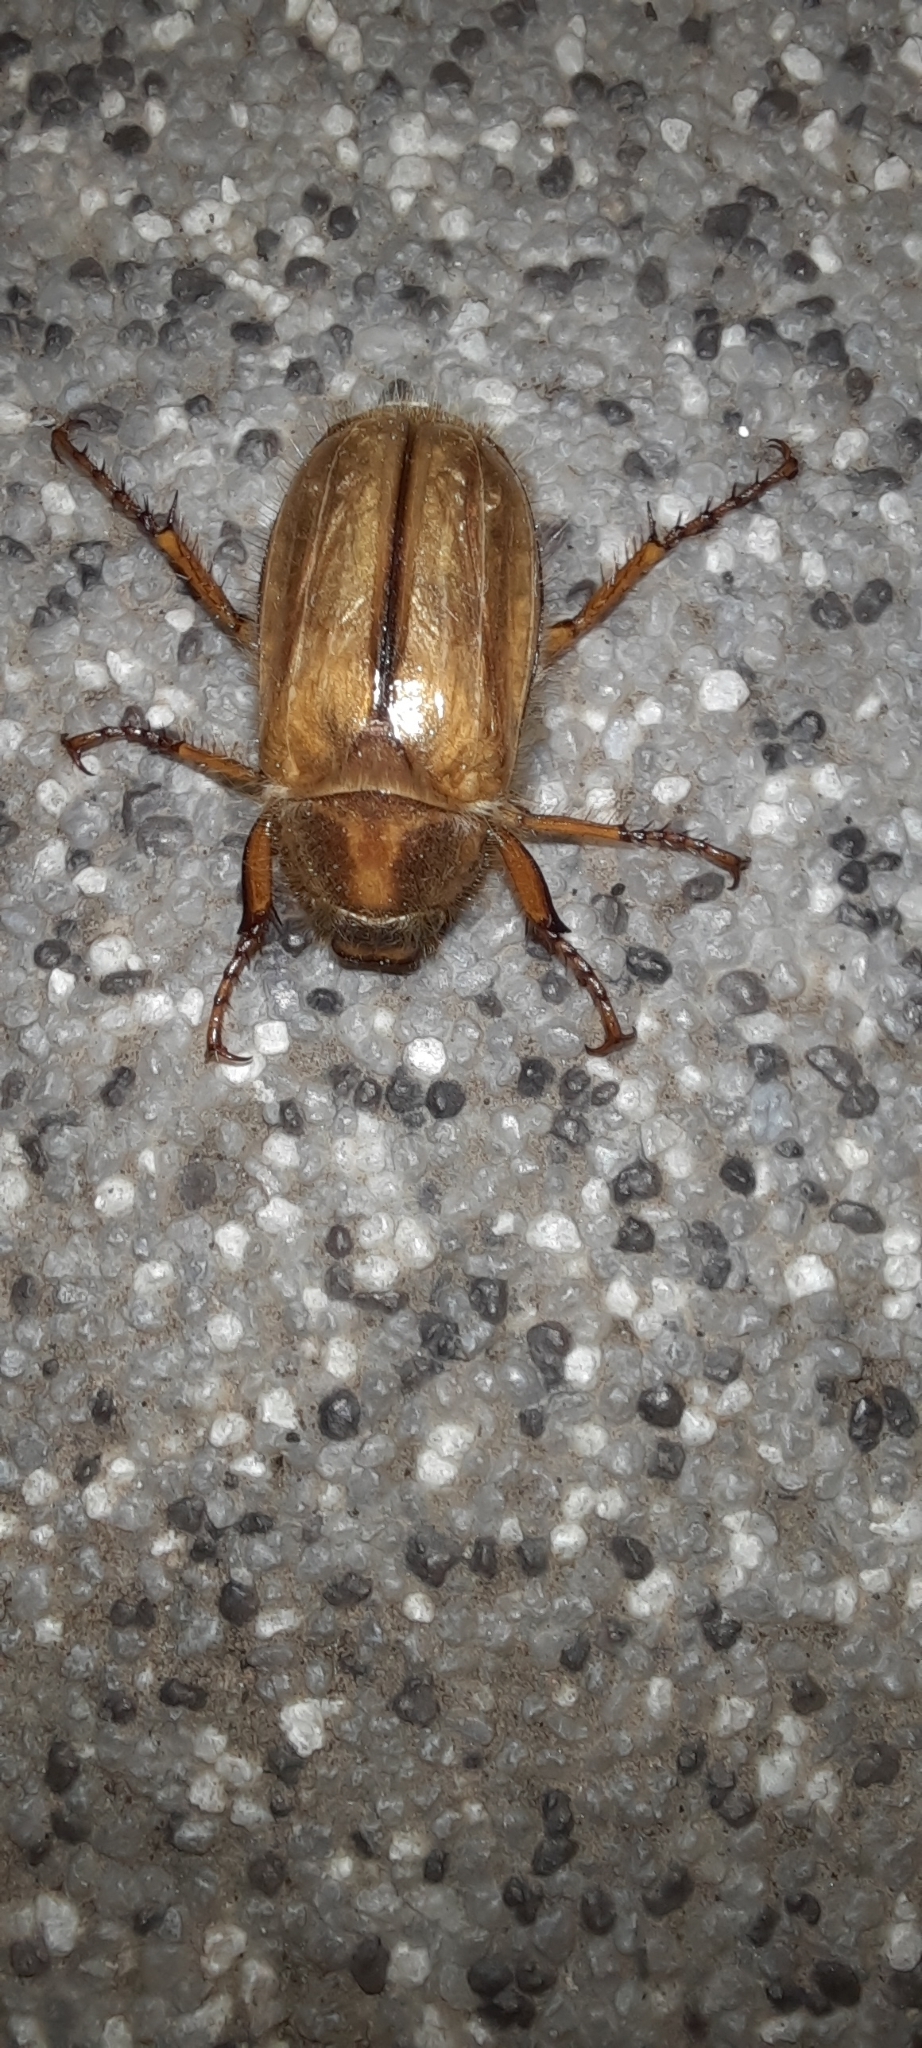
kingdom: Animalia
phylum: Arthropoda
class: Insecta
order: Coleoptera
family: Scarabaeidae
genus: Amphimallon
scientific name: Amphimallon solstitiale
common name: Summer chafer
